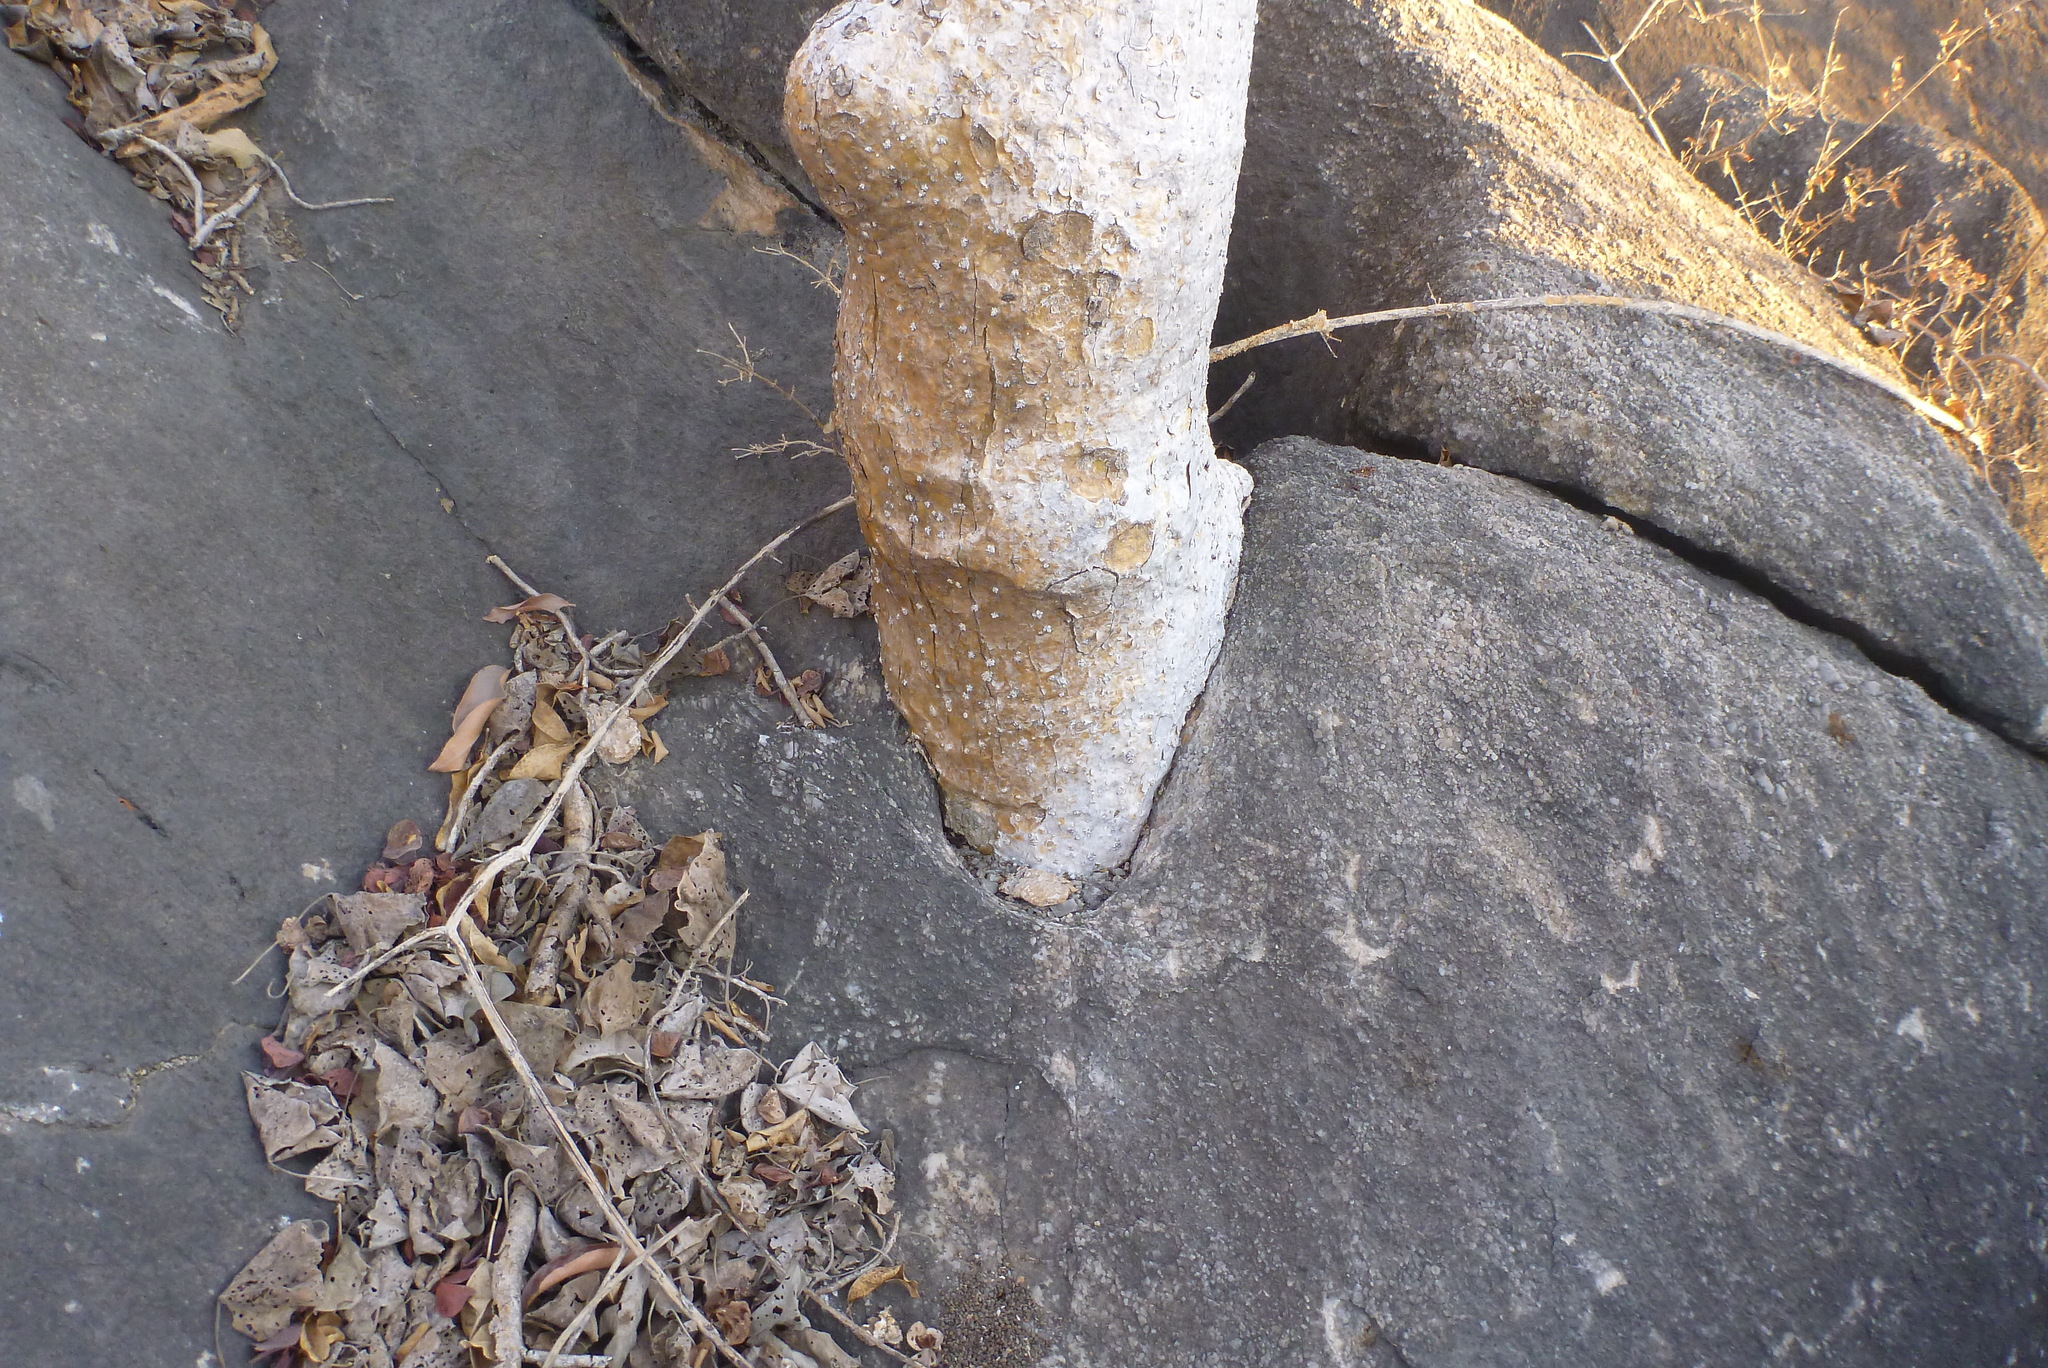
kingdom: Plantae
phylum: Tracheophyta
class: Magnoliopsida
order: Laurales
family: Hernandiaceae
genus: Gyrocarpus
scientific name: Gyrocarpus americanus
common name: Gyro damson
